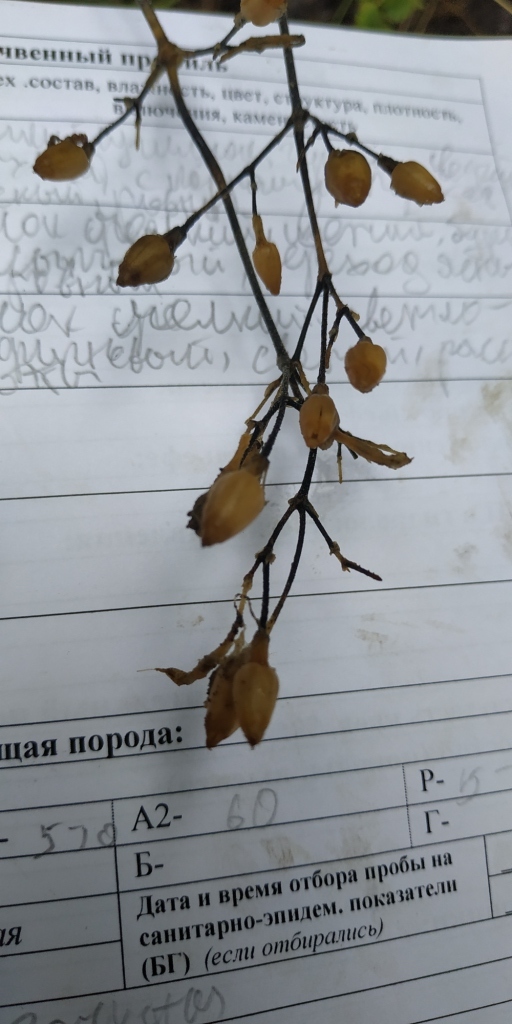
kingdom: Plantae
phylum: Tracheophyta
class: Magnoliopsida
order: Caryophyllales
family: Caryophyllaceae
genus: Silene
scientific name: Silene nutans
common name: Nottingham catchfly
